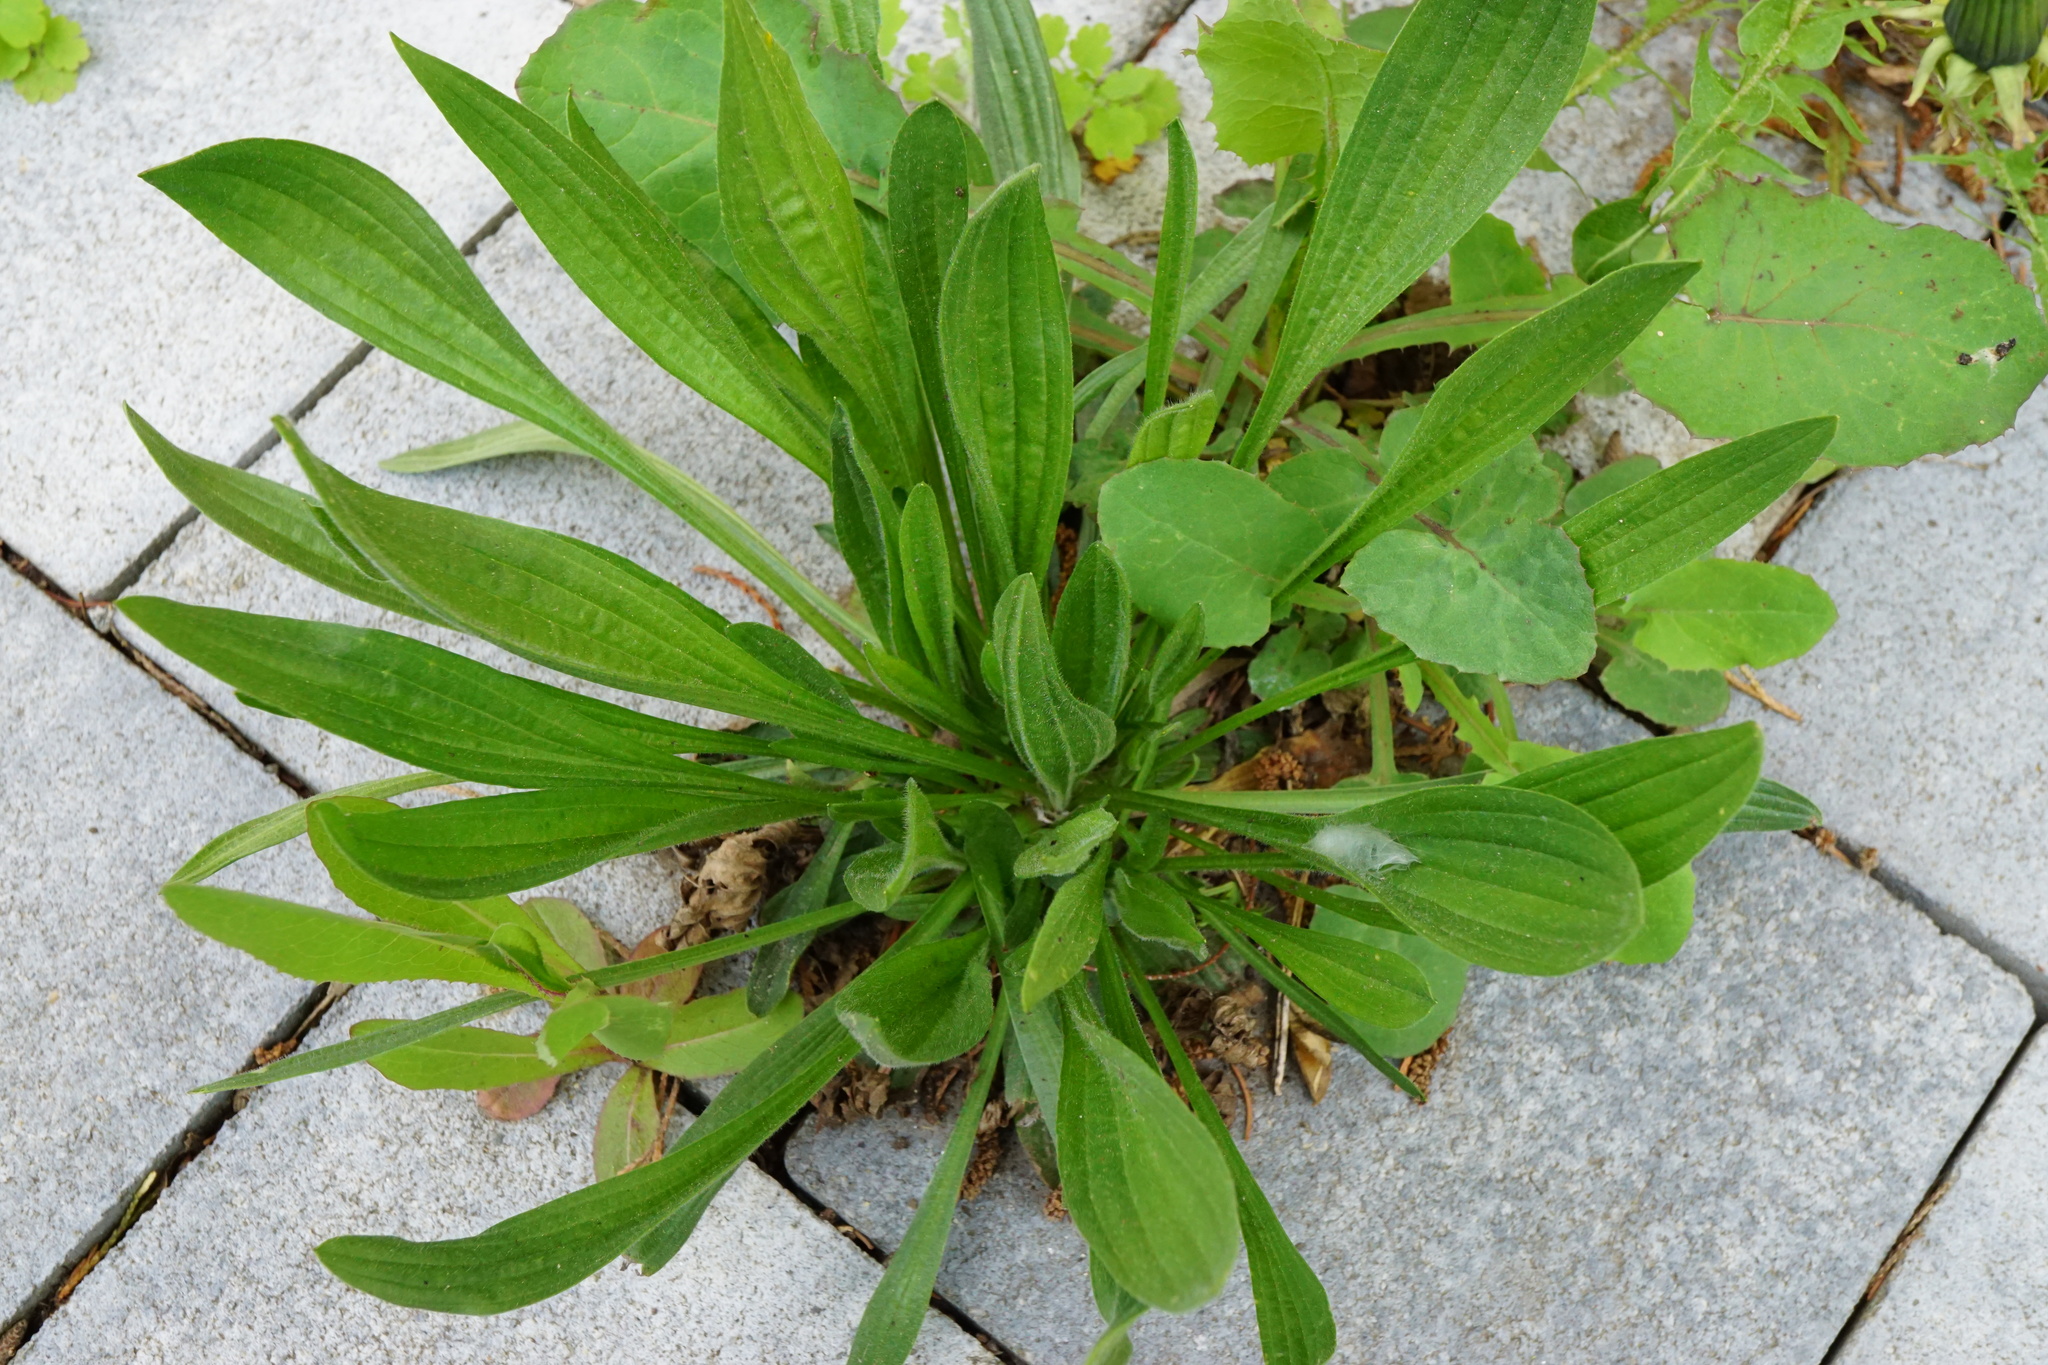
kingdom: Plantae
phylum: Tracheophyta
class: Magnoliopsida
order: Lamiales
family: Plantaginaceae
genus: Plantago
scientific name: Plantago lanceolata
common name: Ribwort plantain
